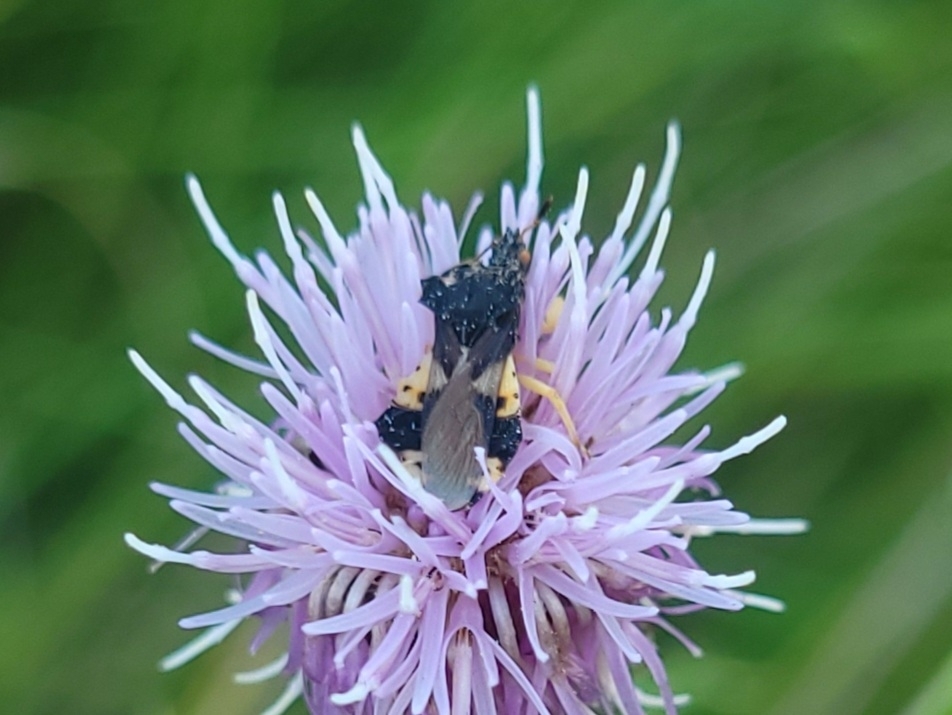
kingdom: Animalia
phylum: Arthropoda
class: Insecta
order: Hemiptera
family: Reduviidae
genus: Phymata
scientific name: Phymata americana
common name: Jagged ambush bug
